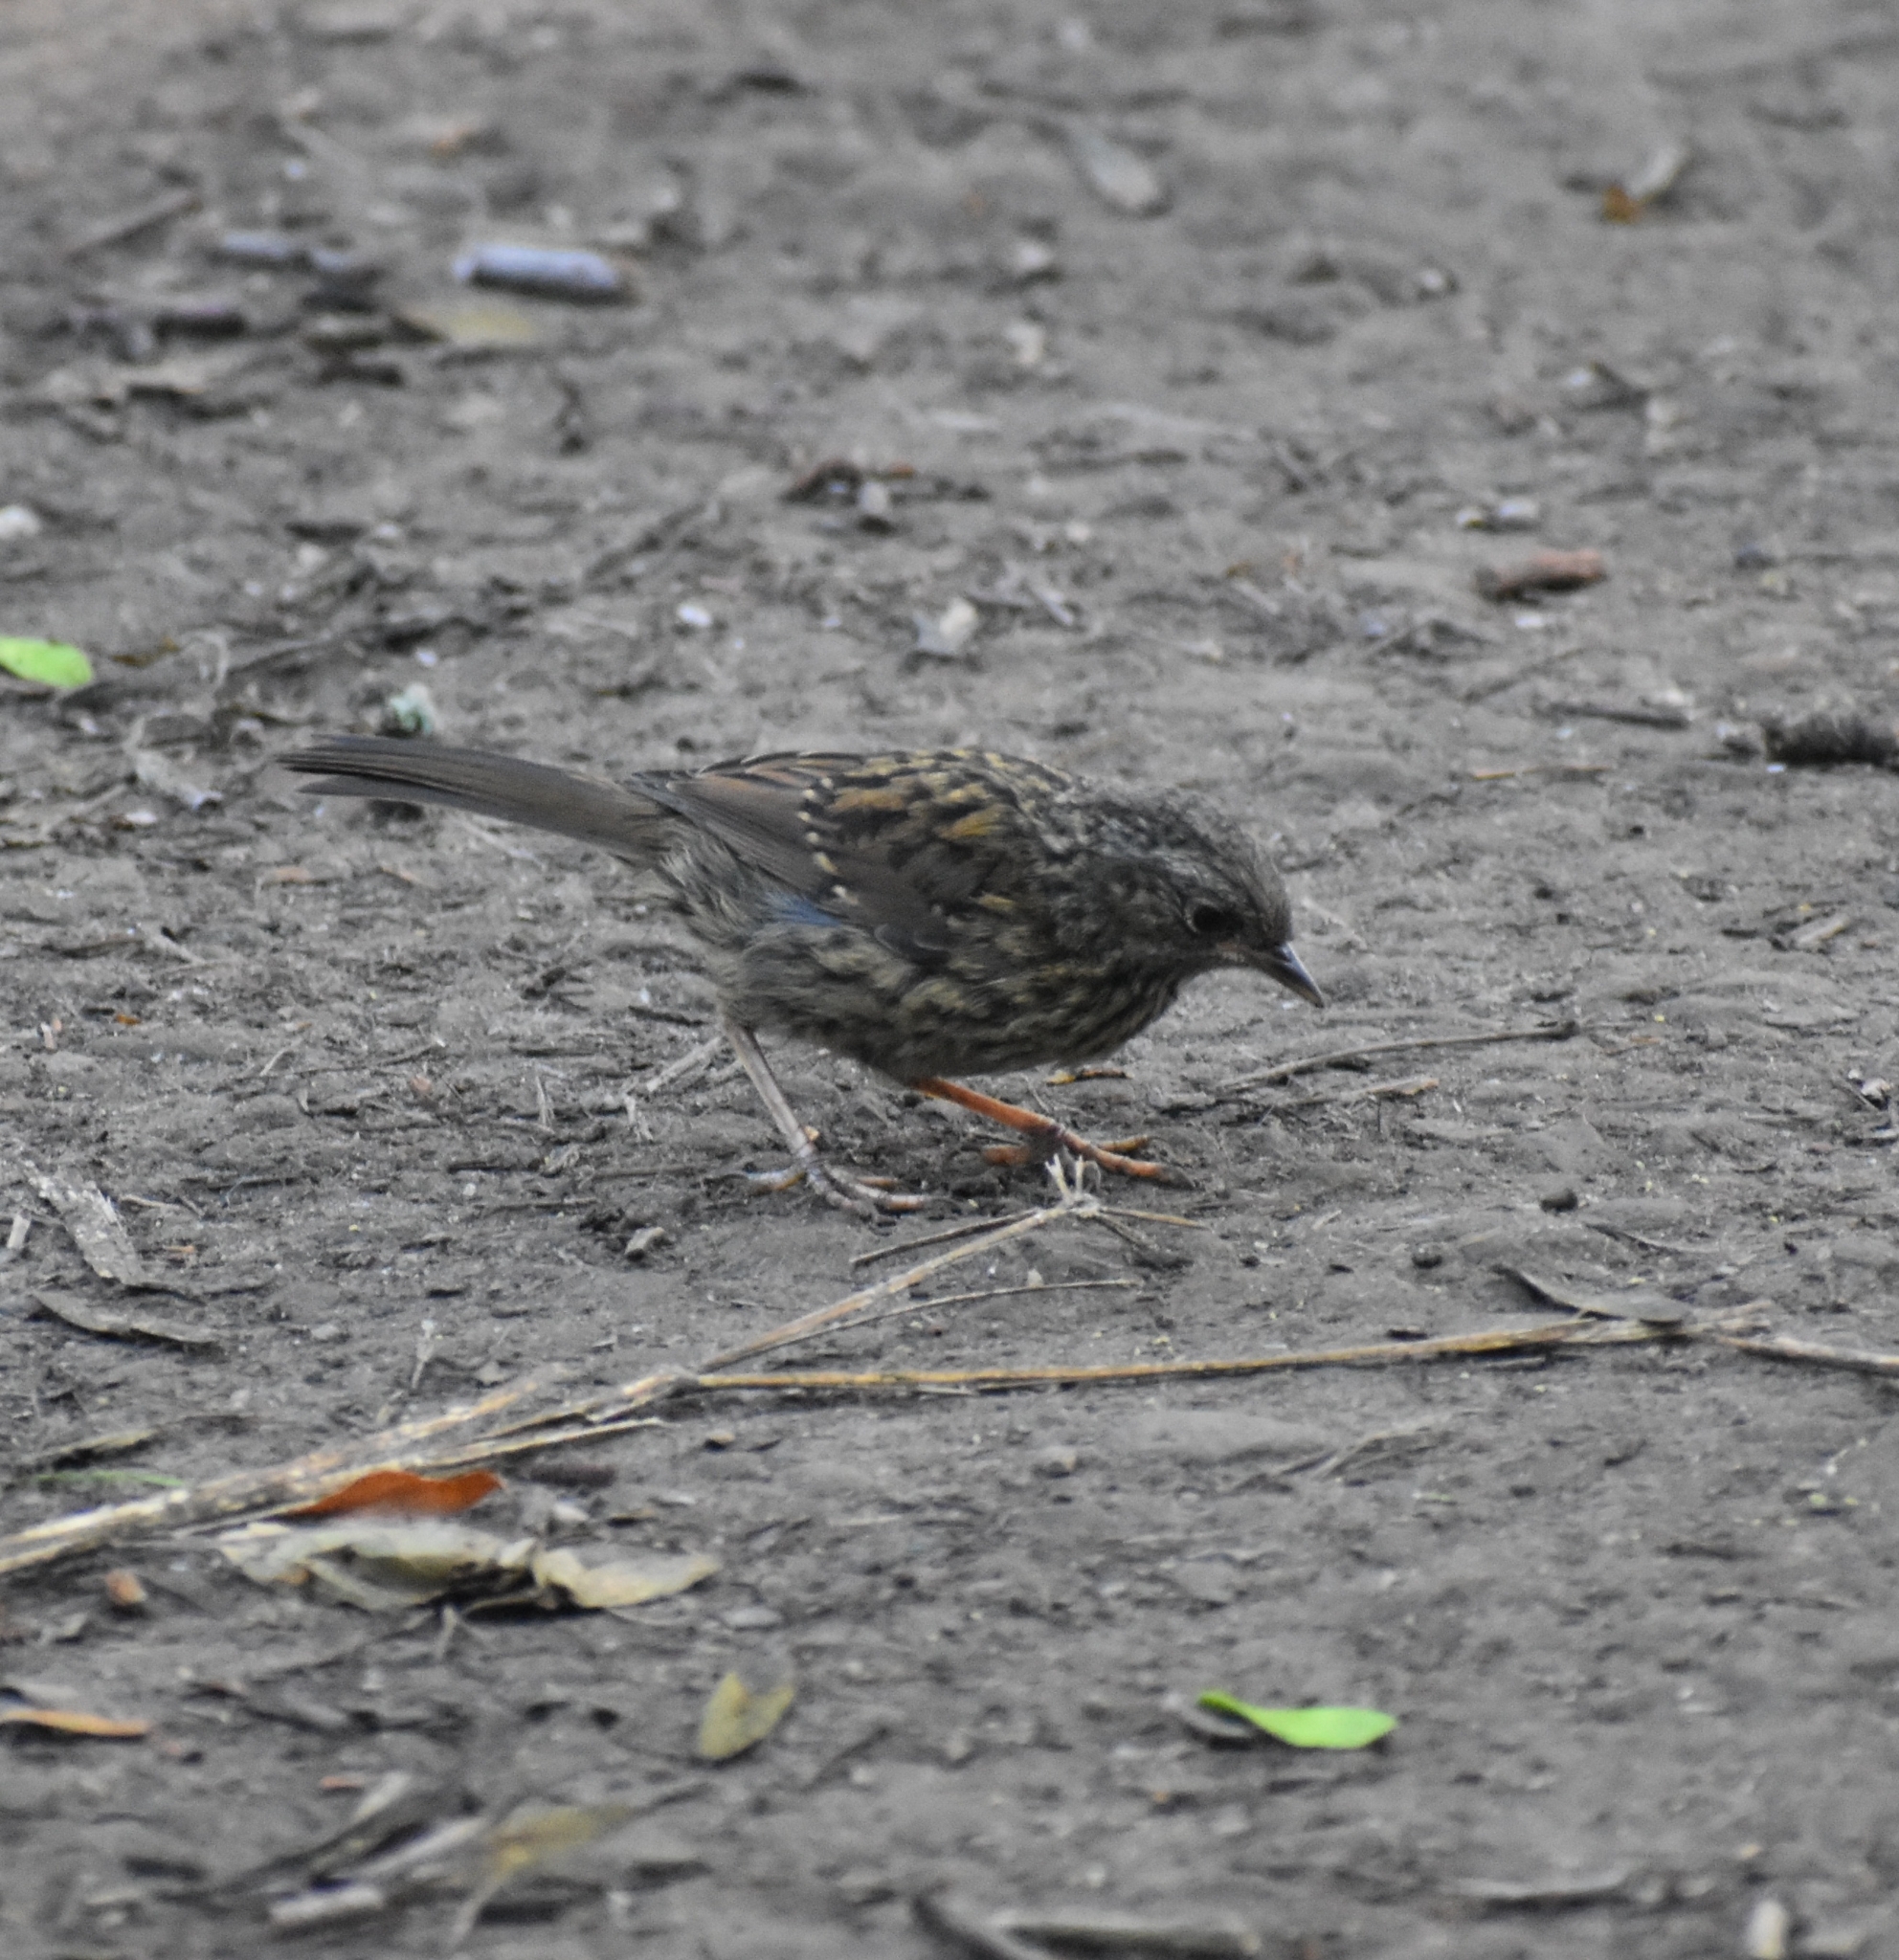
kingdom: Animalia
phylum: Chordata
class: Aves
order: Passeriformes
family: Prunellidae
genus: Prunella
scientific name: Prunella modularis
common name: Dunnock
